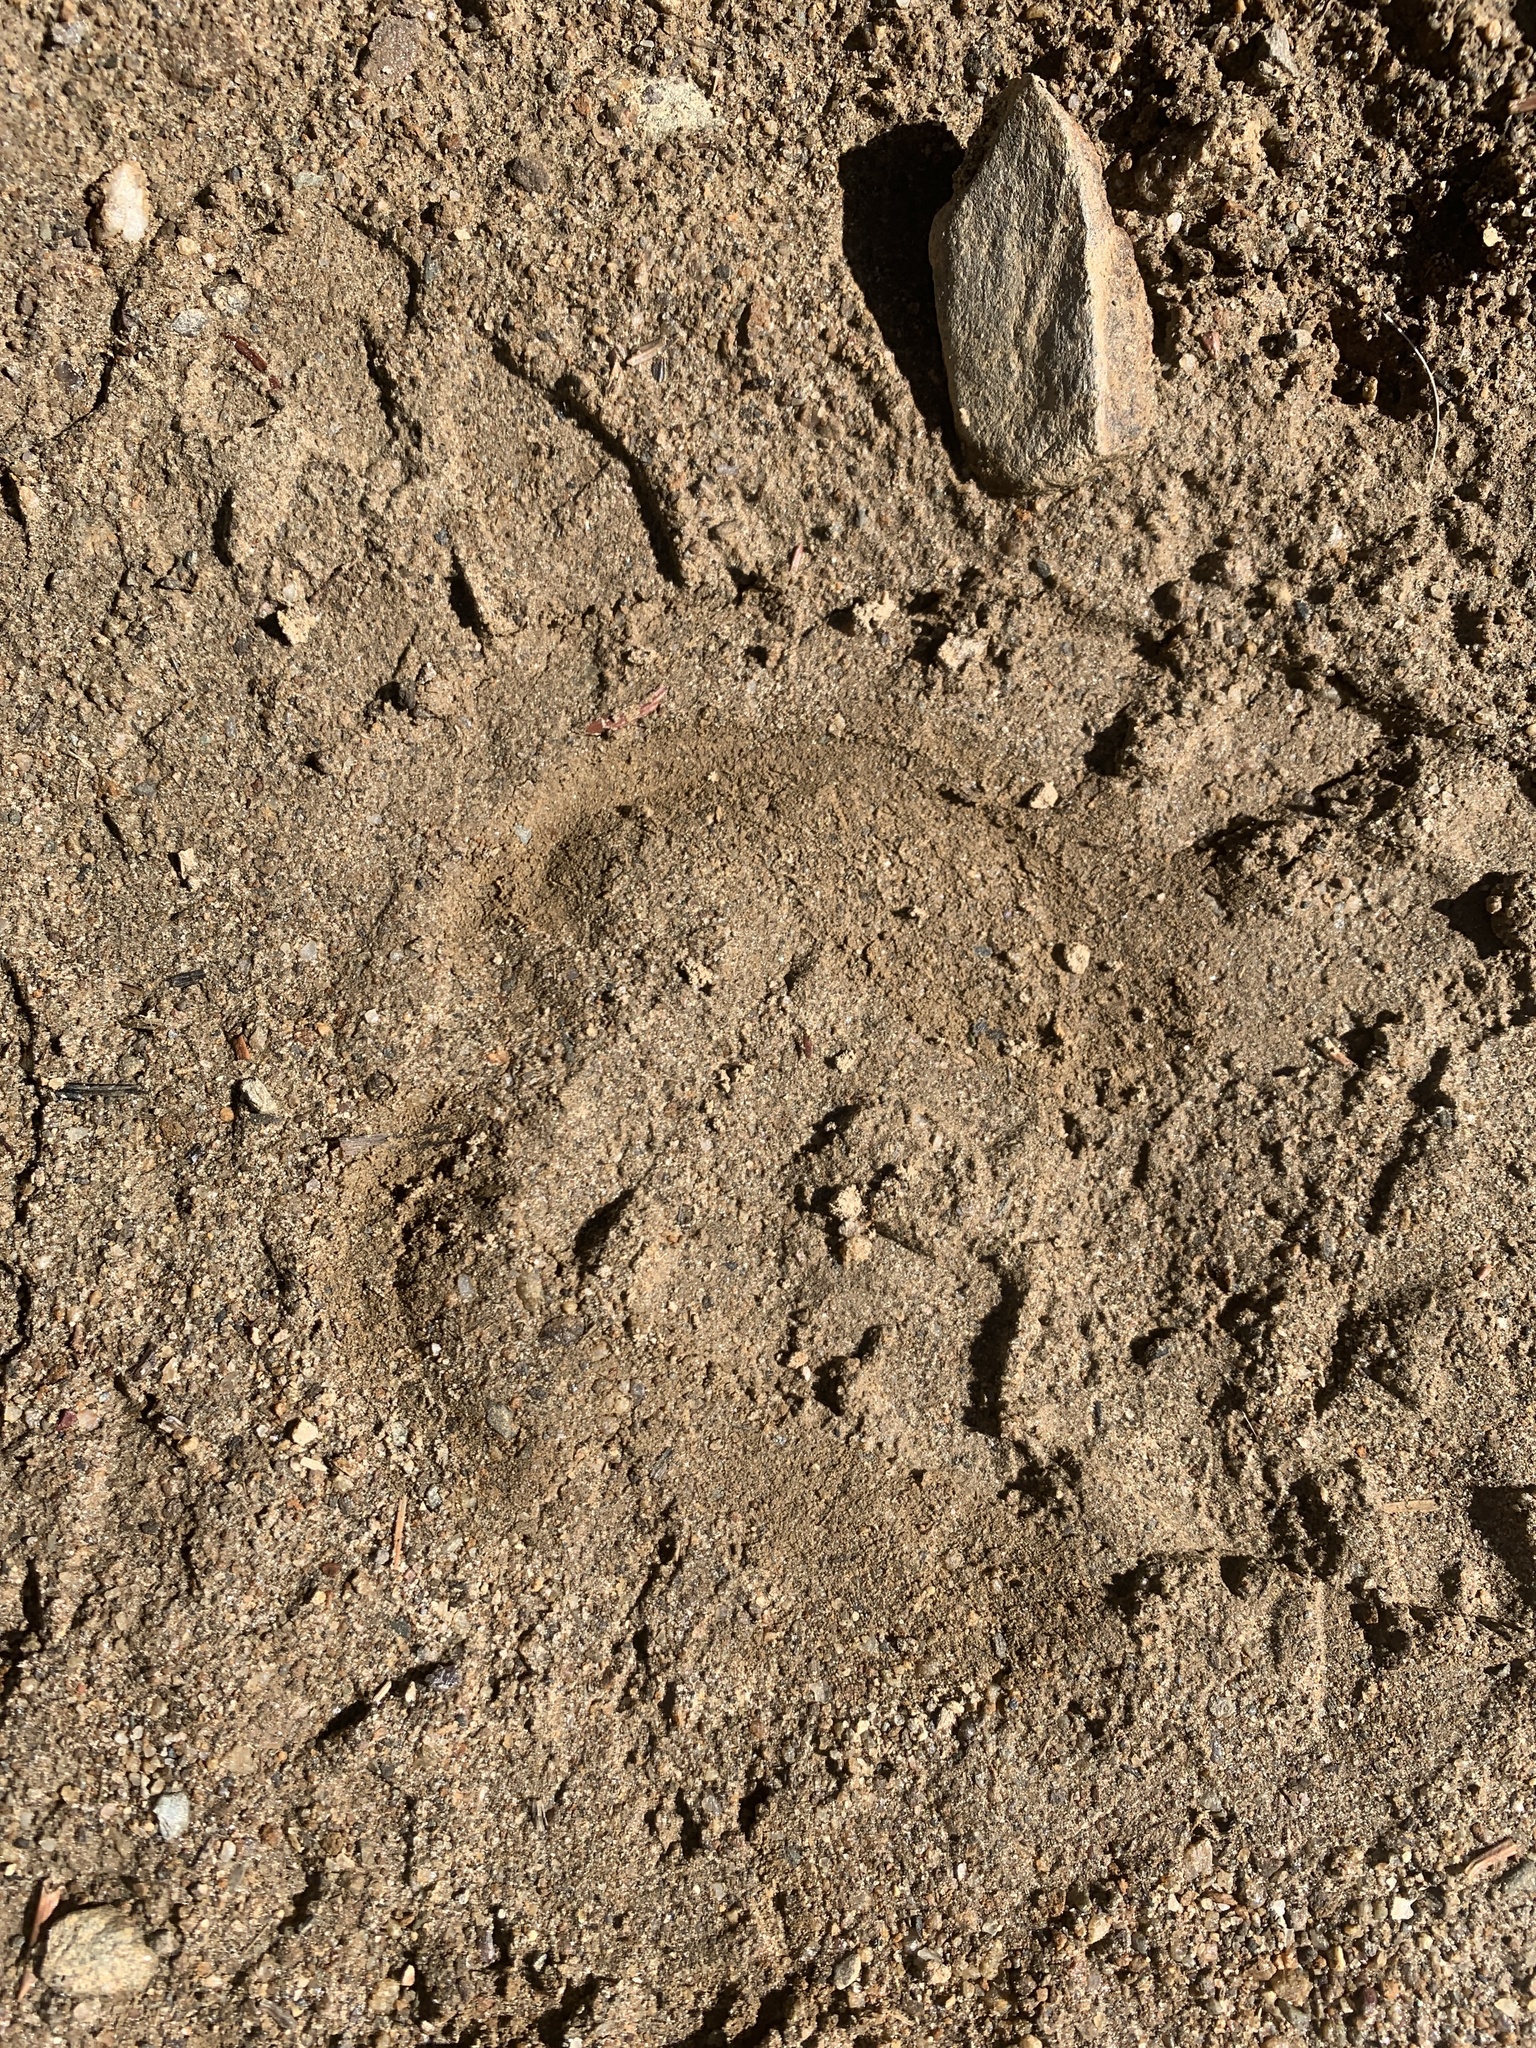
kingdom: Animalia
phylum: Chordata
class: Mammalia
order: Artiodactyla
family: Cervidae
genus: Rangifer
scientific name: Rangifer tarandus
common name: Reindeer
